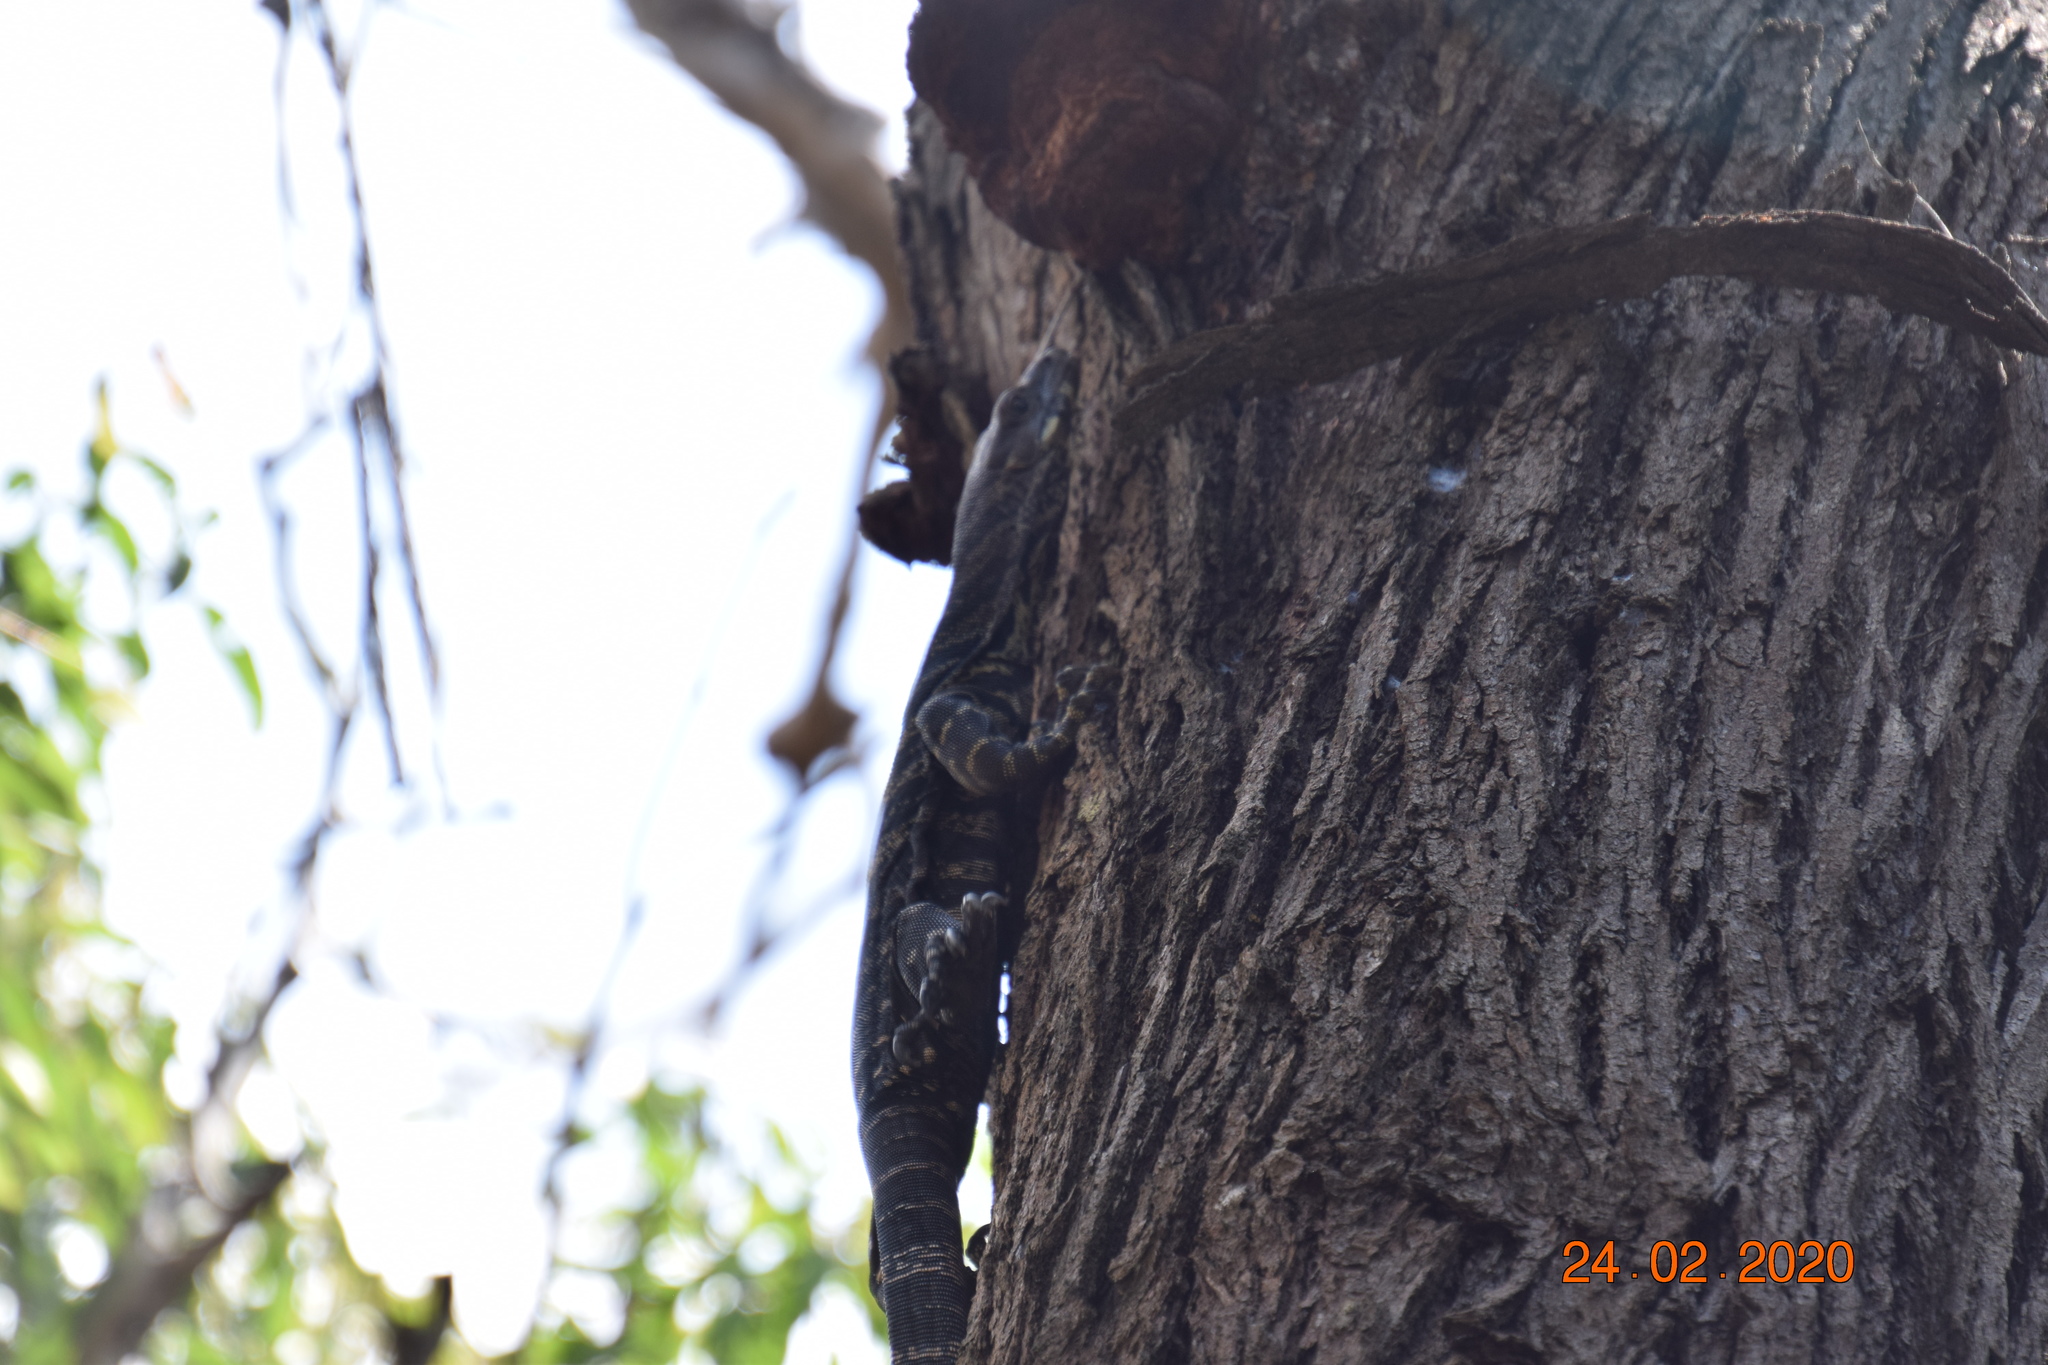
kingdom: Animalia
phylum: Chordata
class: Squamata
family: Varanidae
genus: Varanus
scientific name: Varanus varius
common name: Lace monitor
